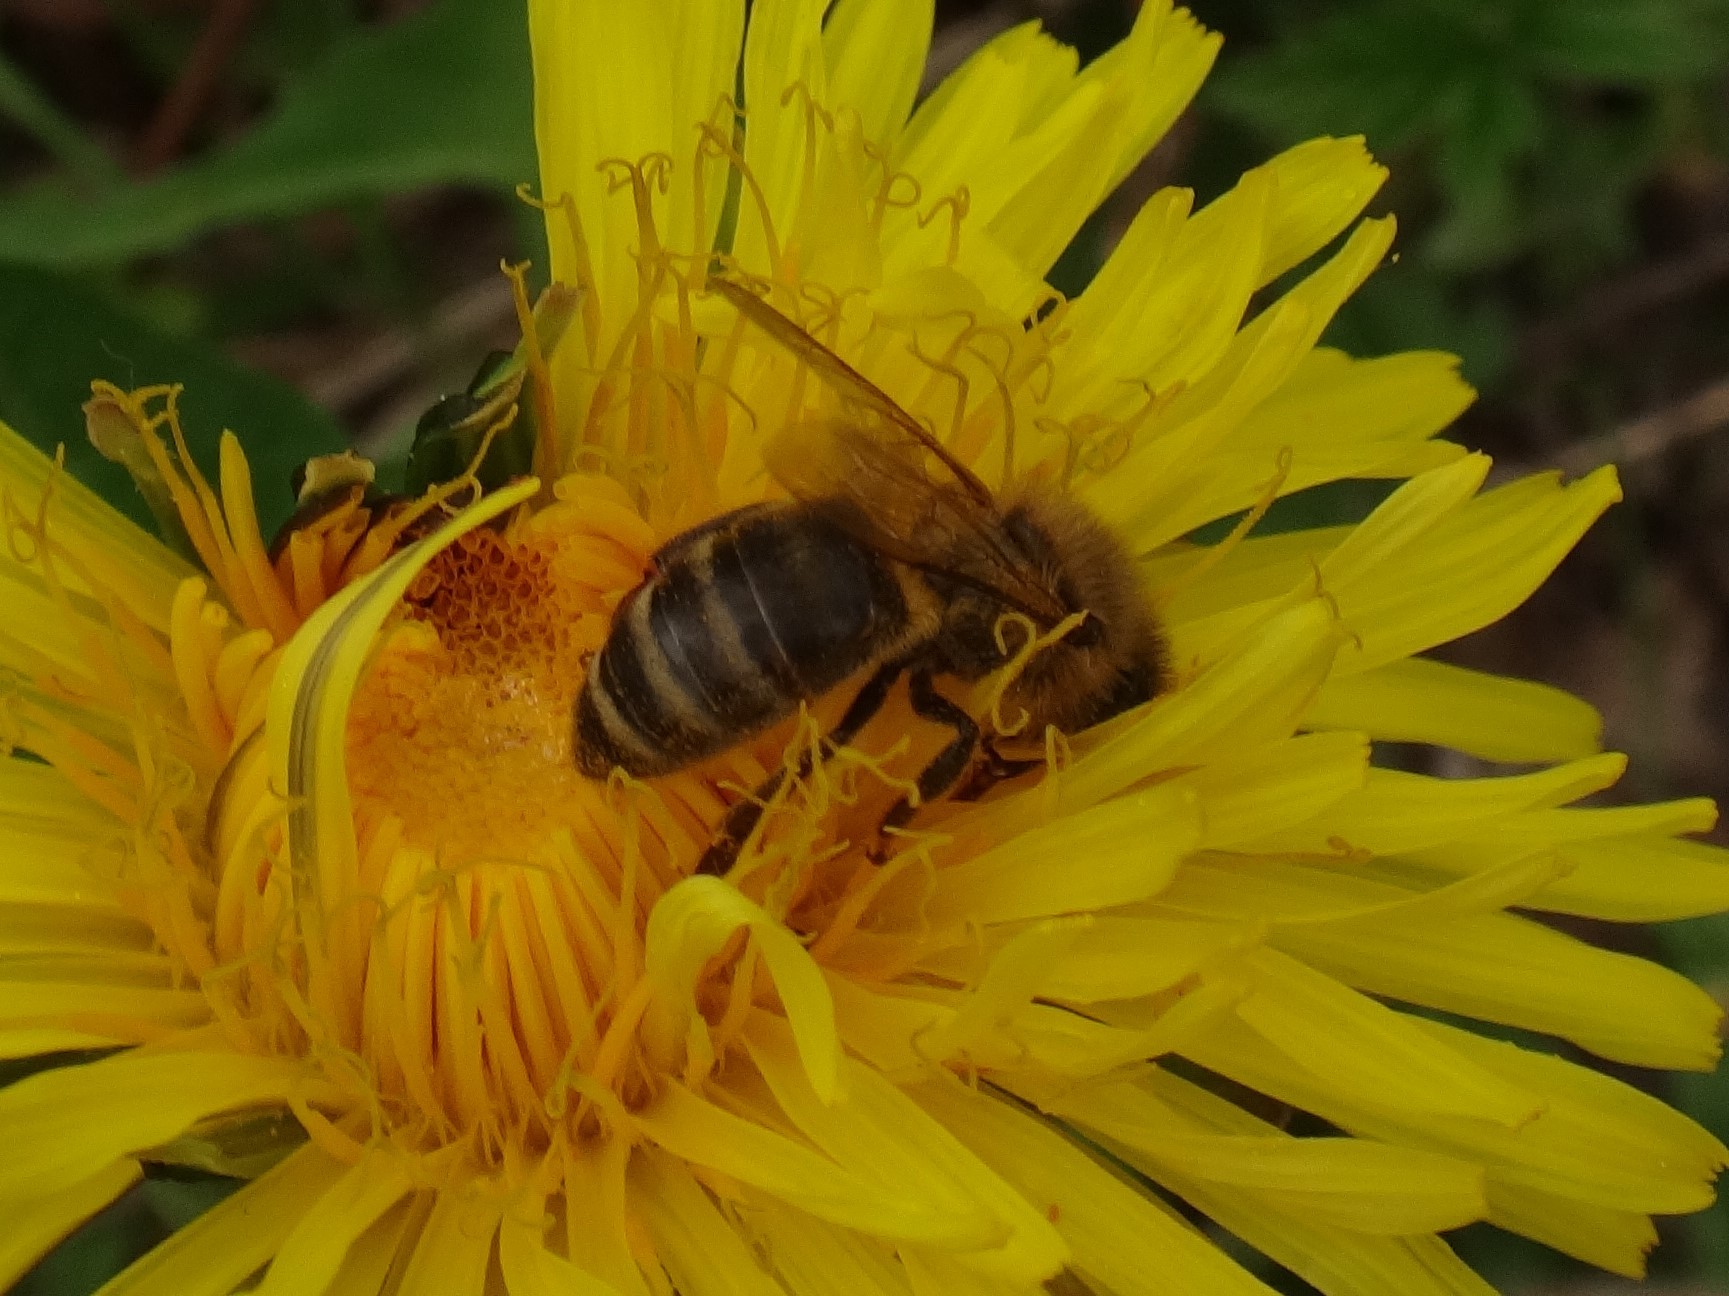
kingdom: Animalia
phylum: Arthropoda
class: Insecta
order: Hymenoptera
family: Apidae
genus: Apis
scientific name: Apis mellifera
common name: Honey bee
